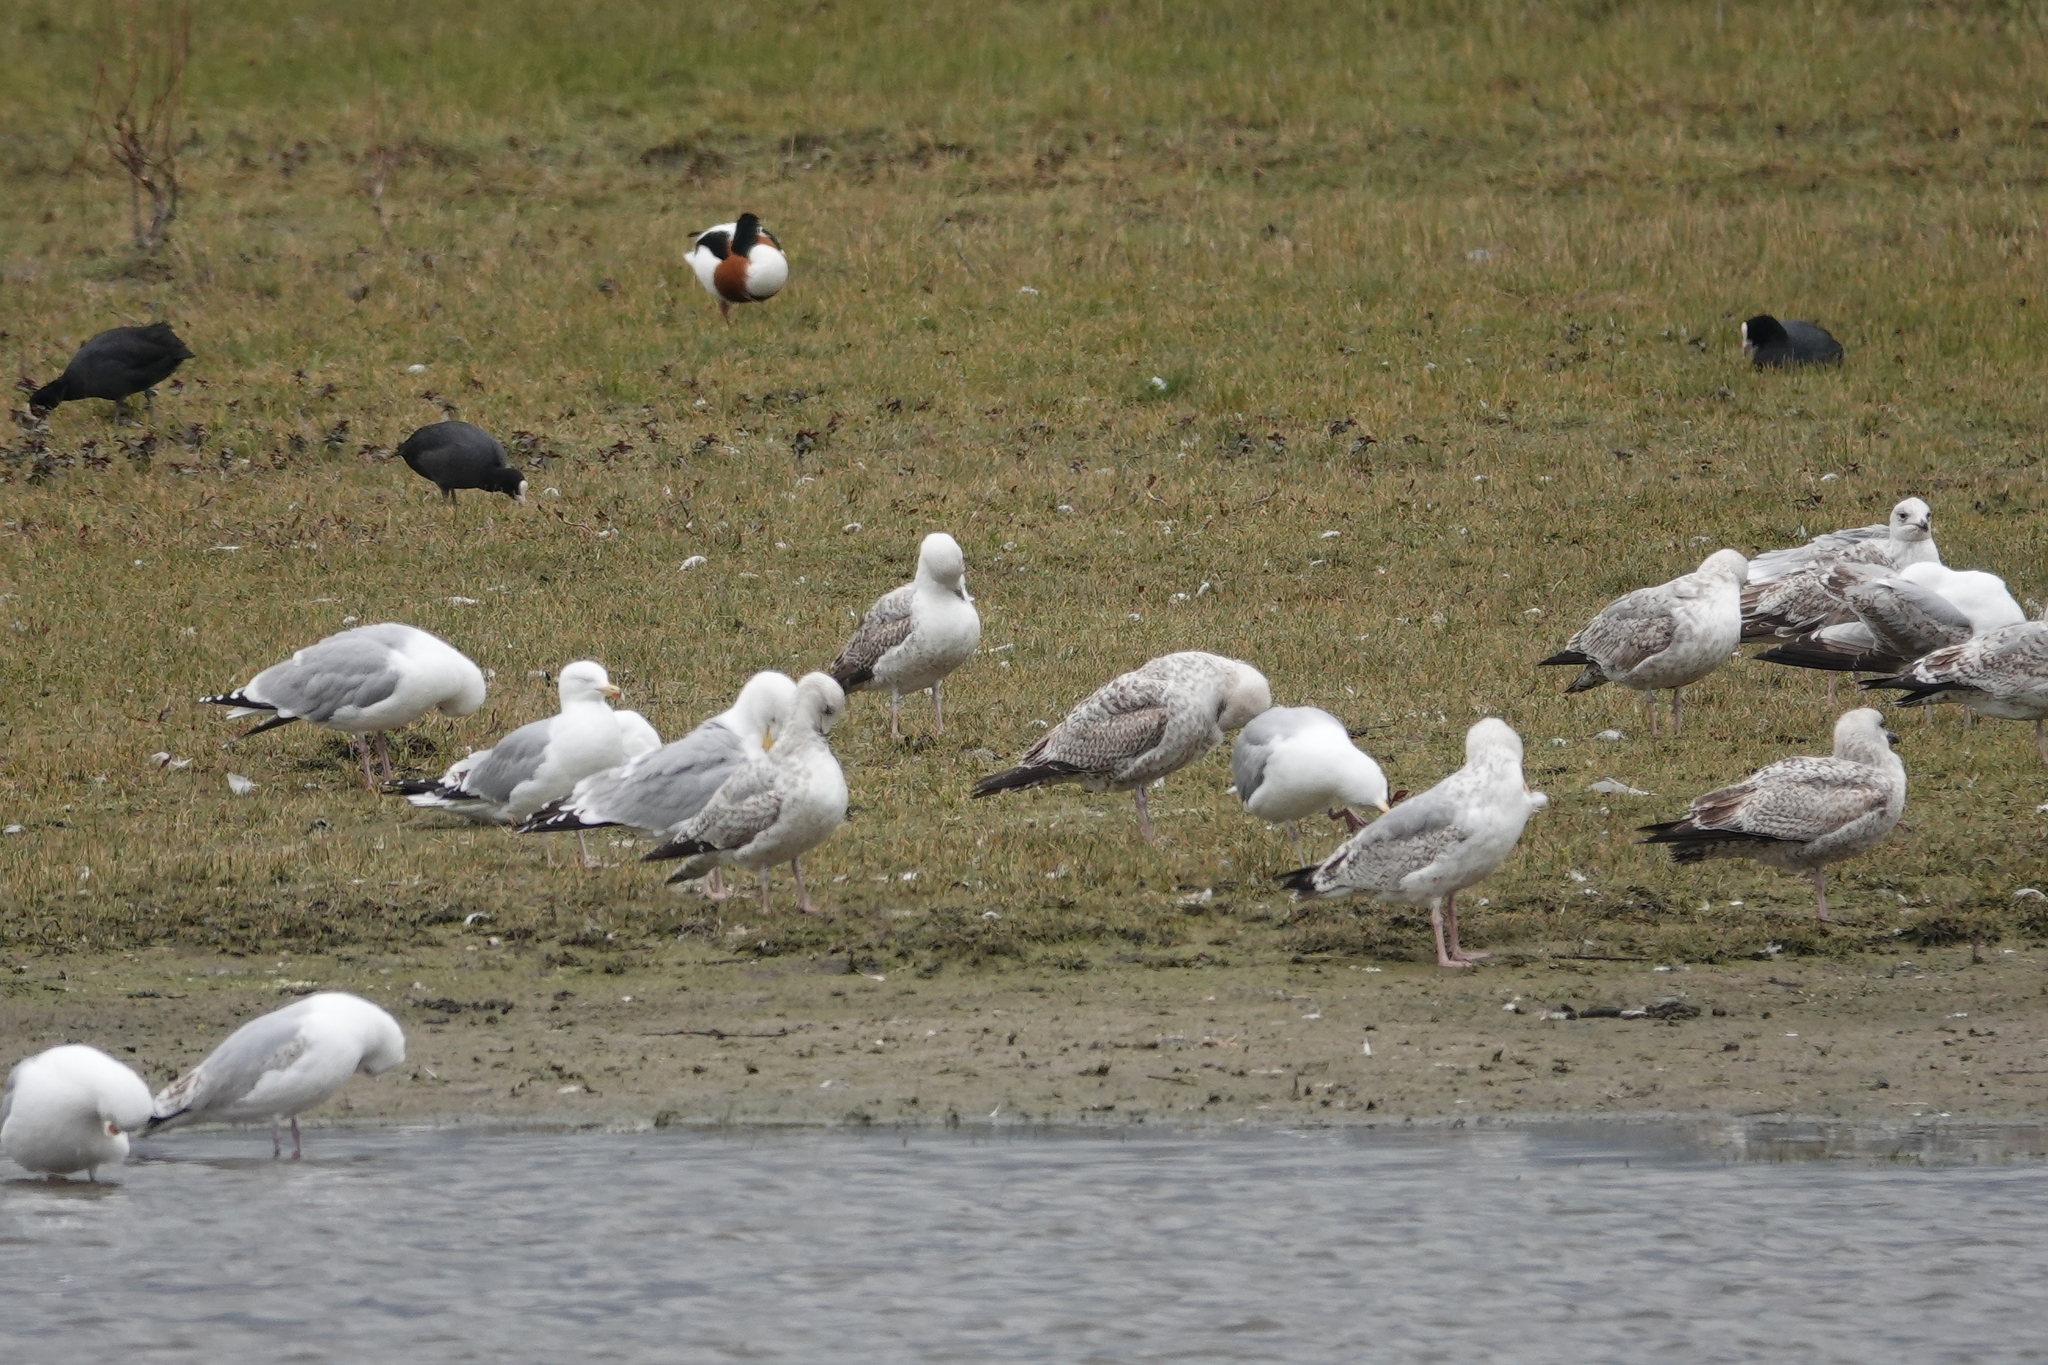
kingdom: Animalia
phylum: Chordata
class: Aves
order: Charadriiformes
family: Laridae
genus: Larus
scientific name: Larus argentatus
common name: Herring gull
